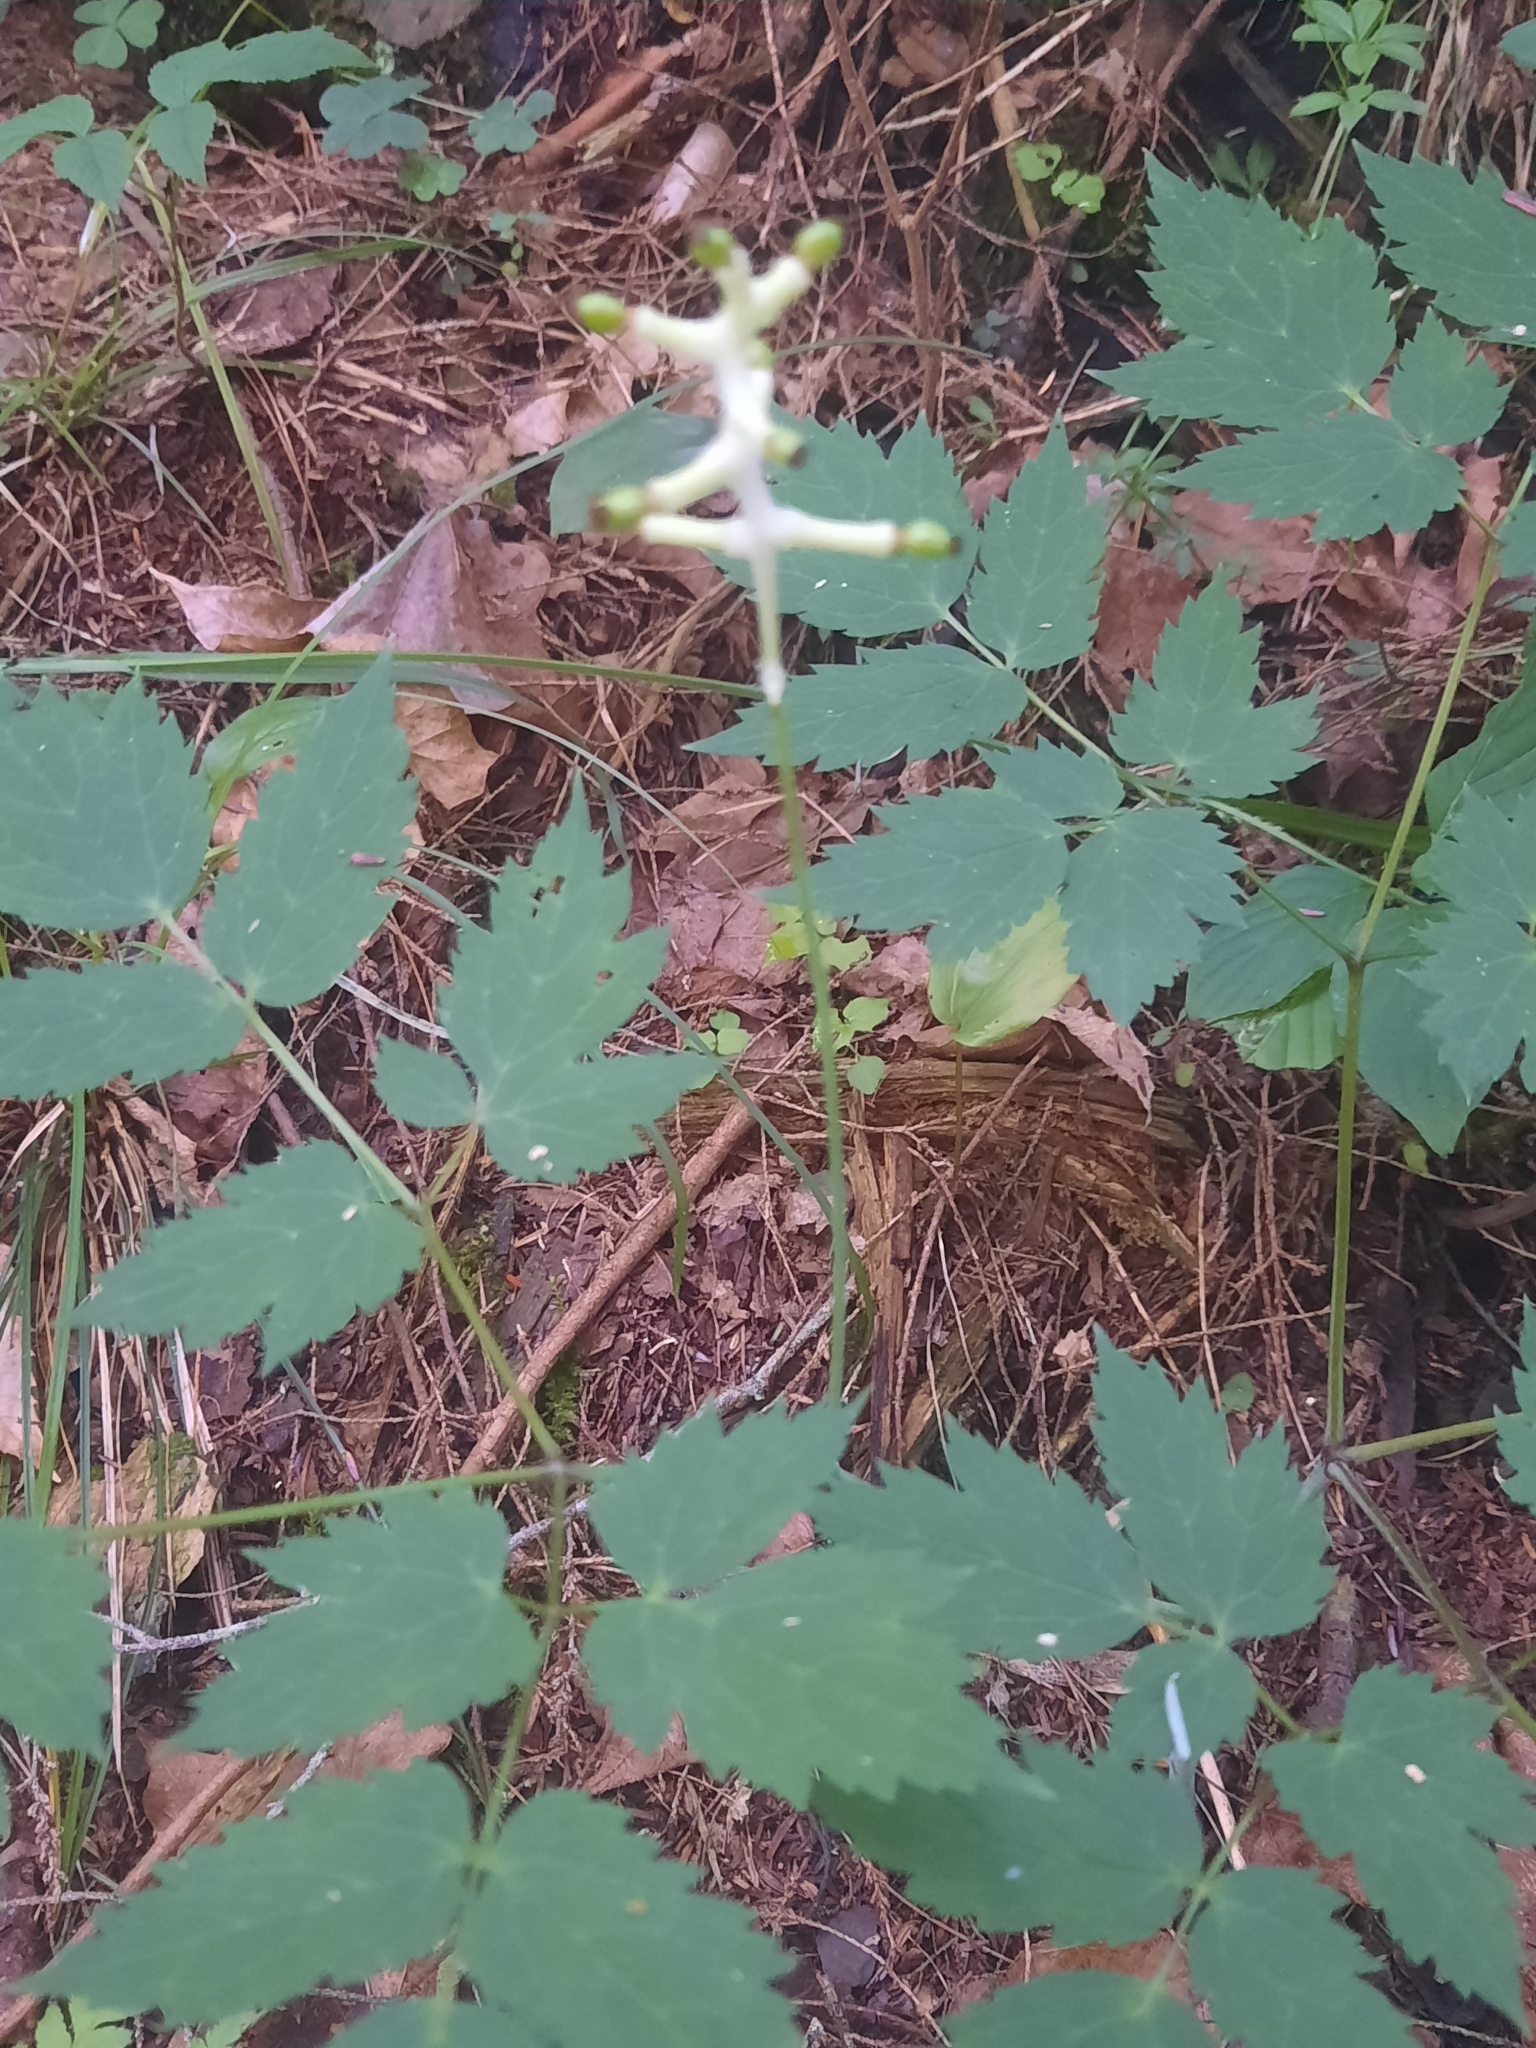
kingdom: Plantae
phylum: Tracheophyta
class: Magnoliopsida
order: Ranunculales
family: Ranunculaceae
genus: Actaea
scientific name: Actaea pachypoda
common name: Doll's-eyes
